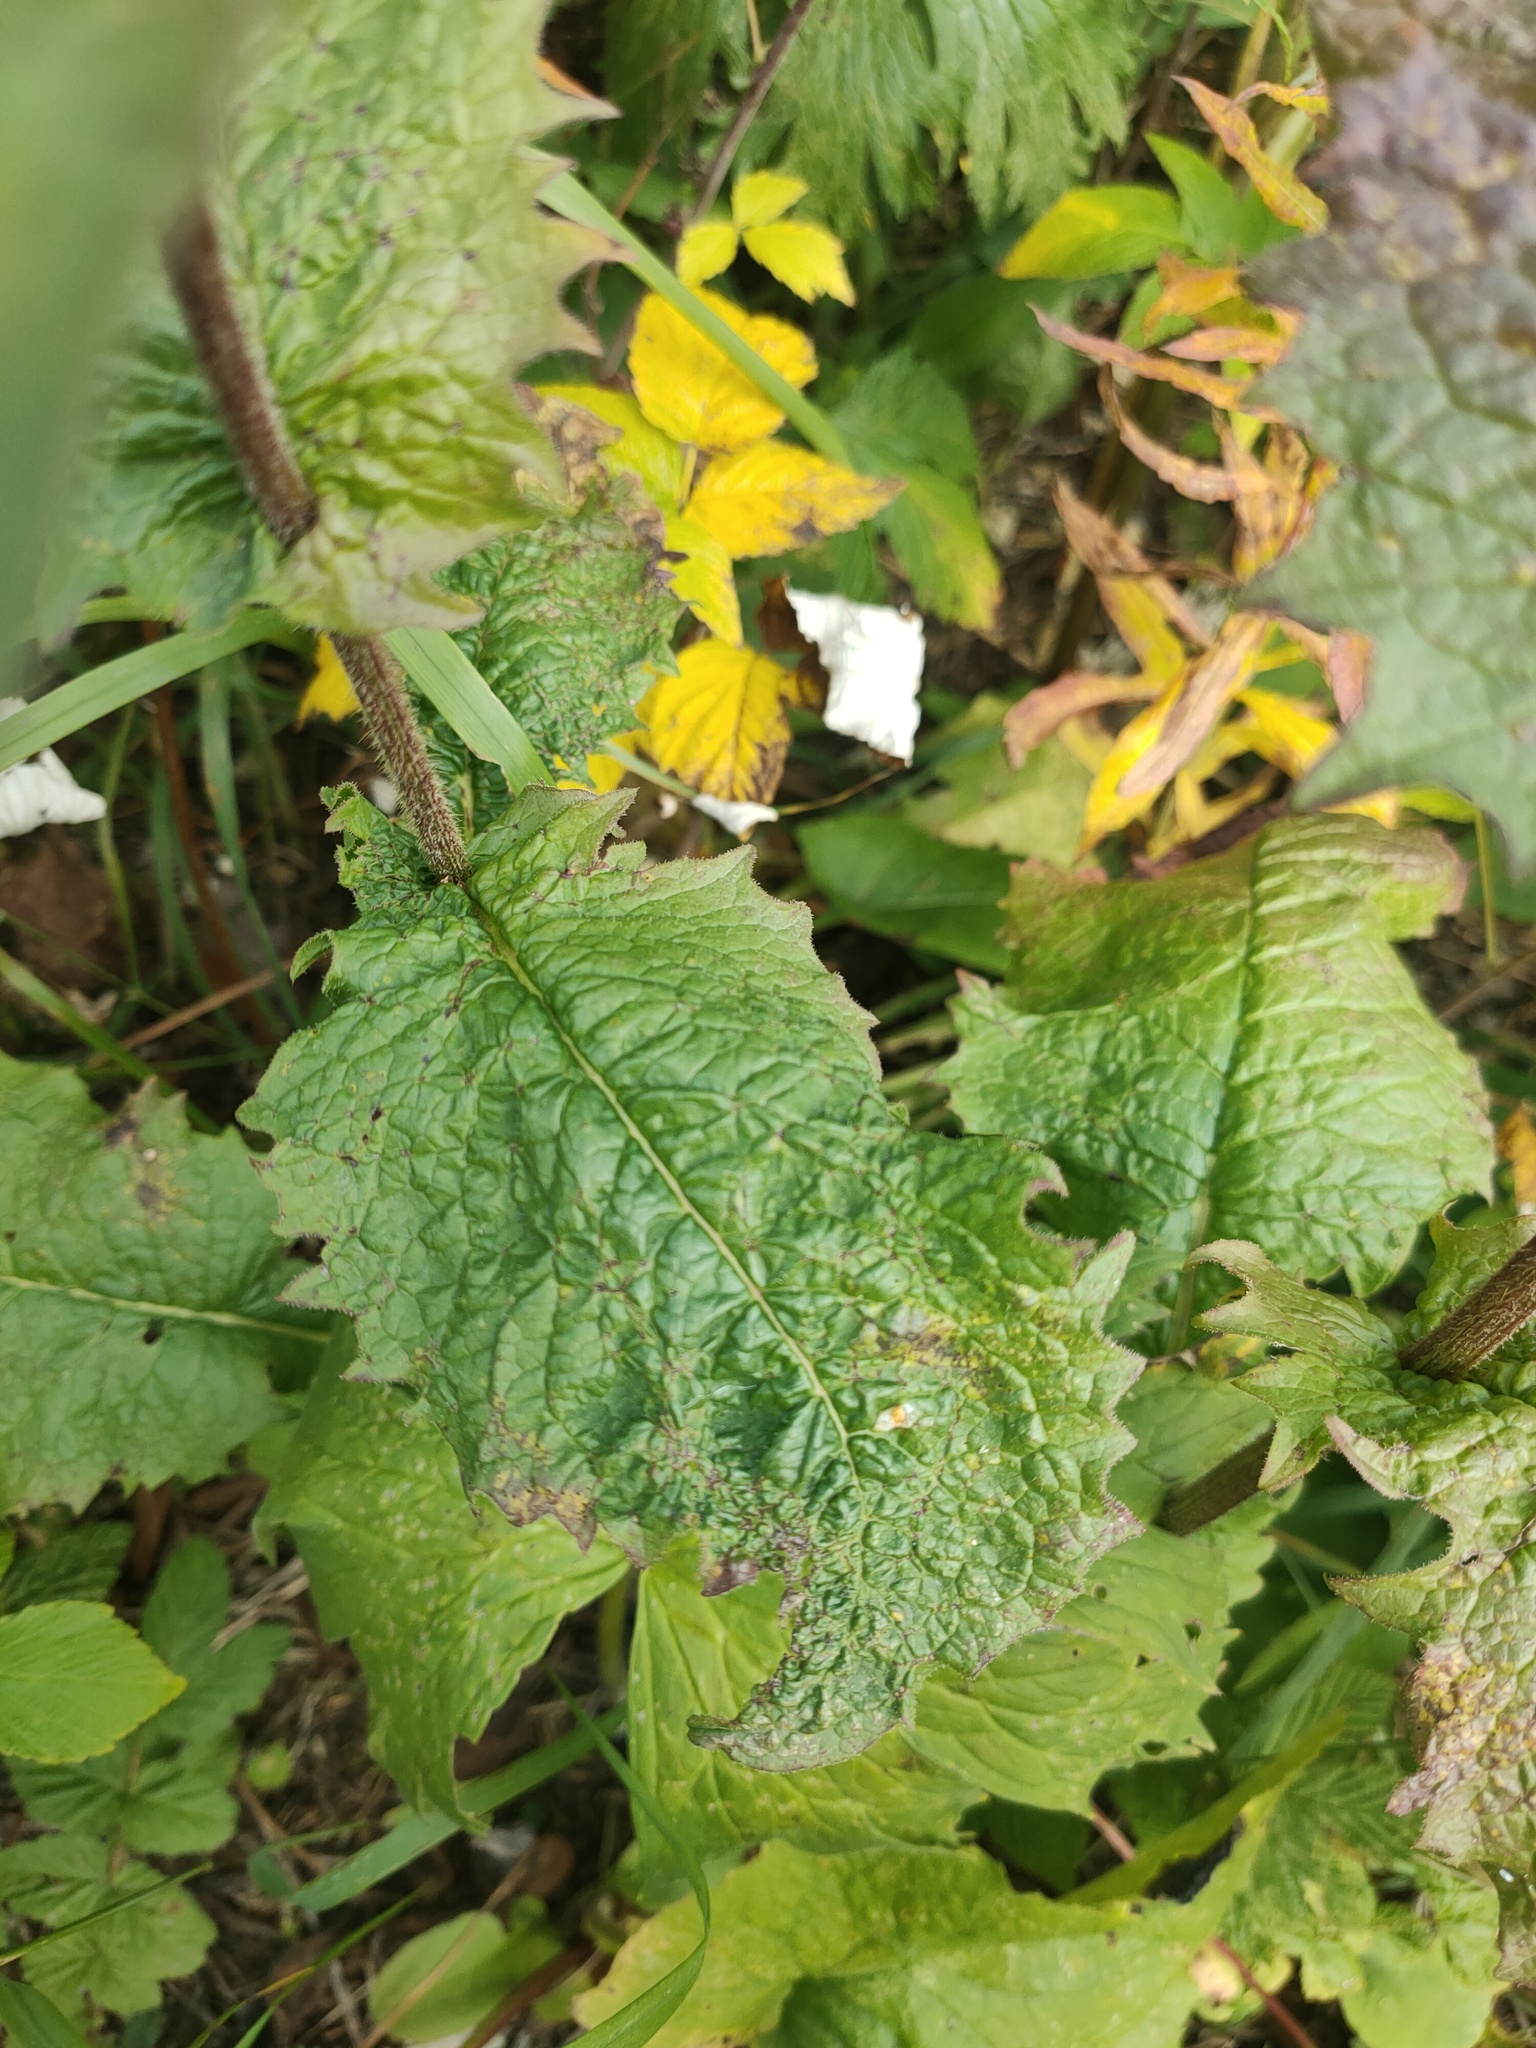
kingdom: Plantae
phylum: Tracheophyta
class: Magnoliopsida
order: Asterales
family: Asteraceae
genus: Crepis
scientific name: Crepis sibirica
